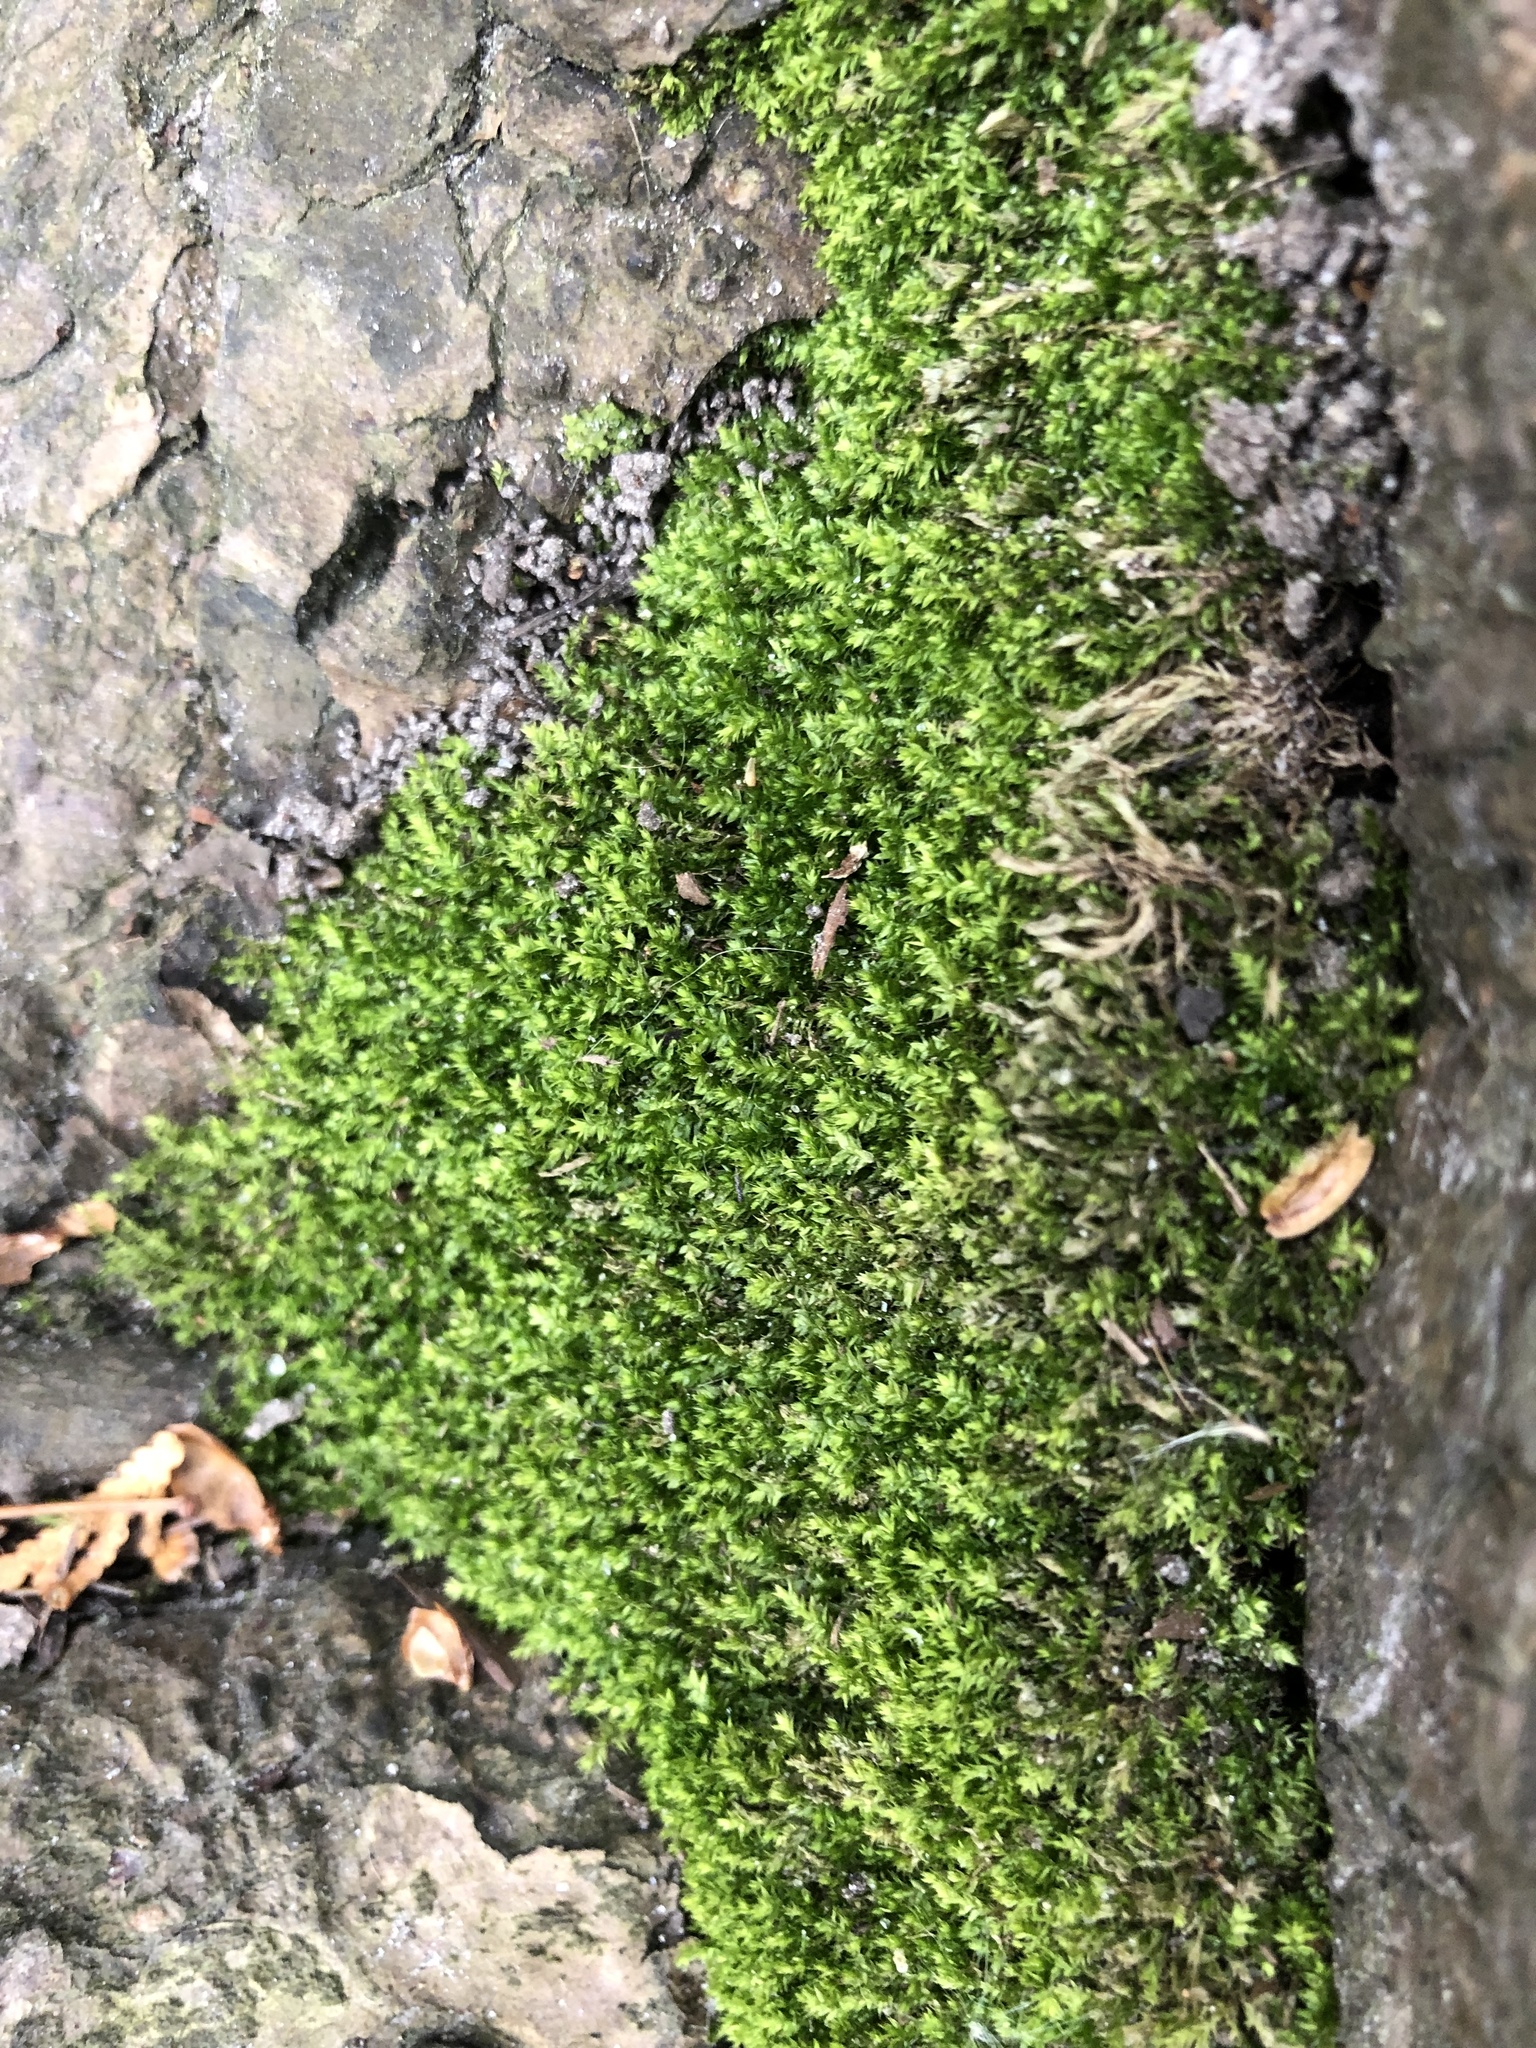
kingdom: Plantae
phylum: Bryophyta
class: Bryopsida
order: Hypnales
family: Neckeraceae
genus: Pseudanomodon
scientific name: Pseudanomodon attenuatus
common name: Tree-skirt moss
